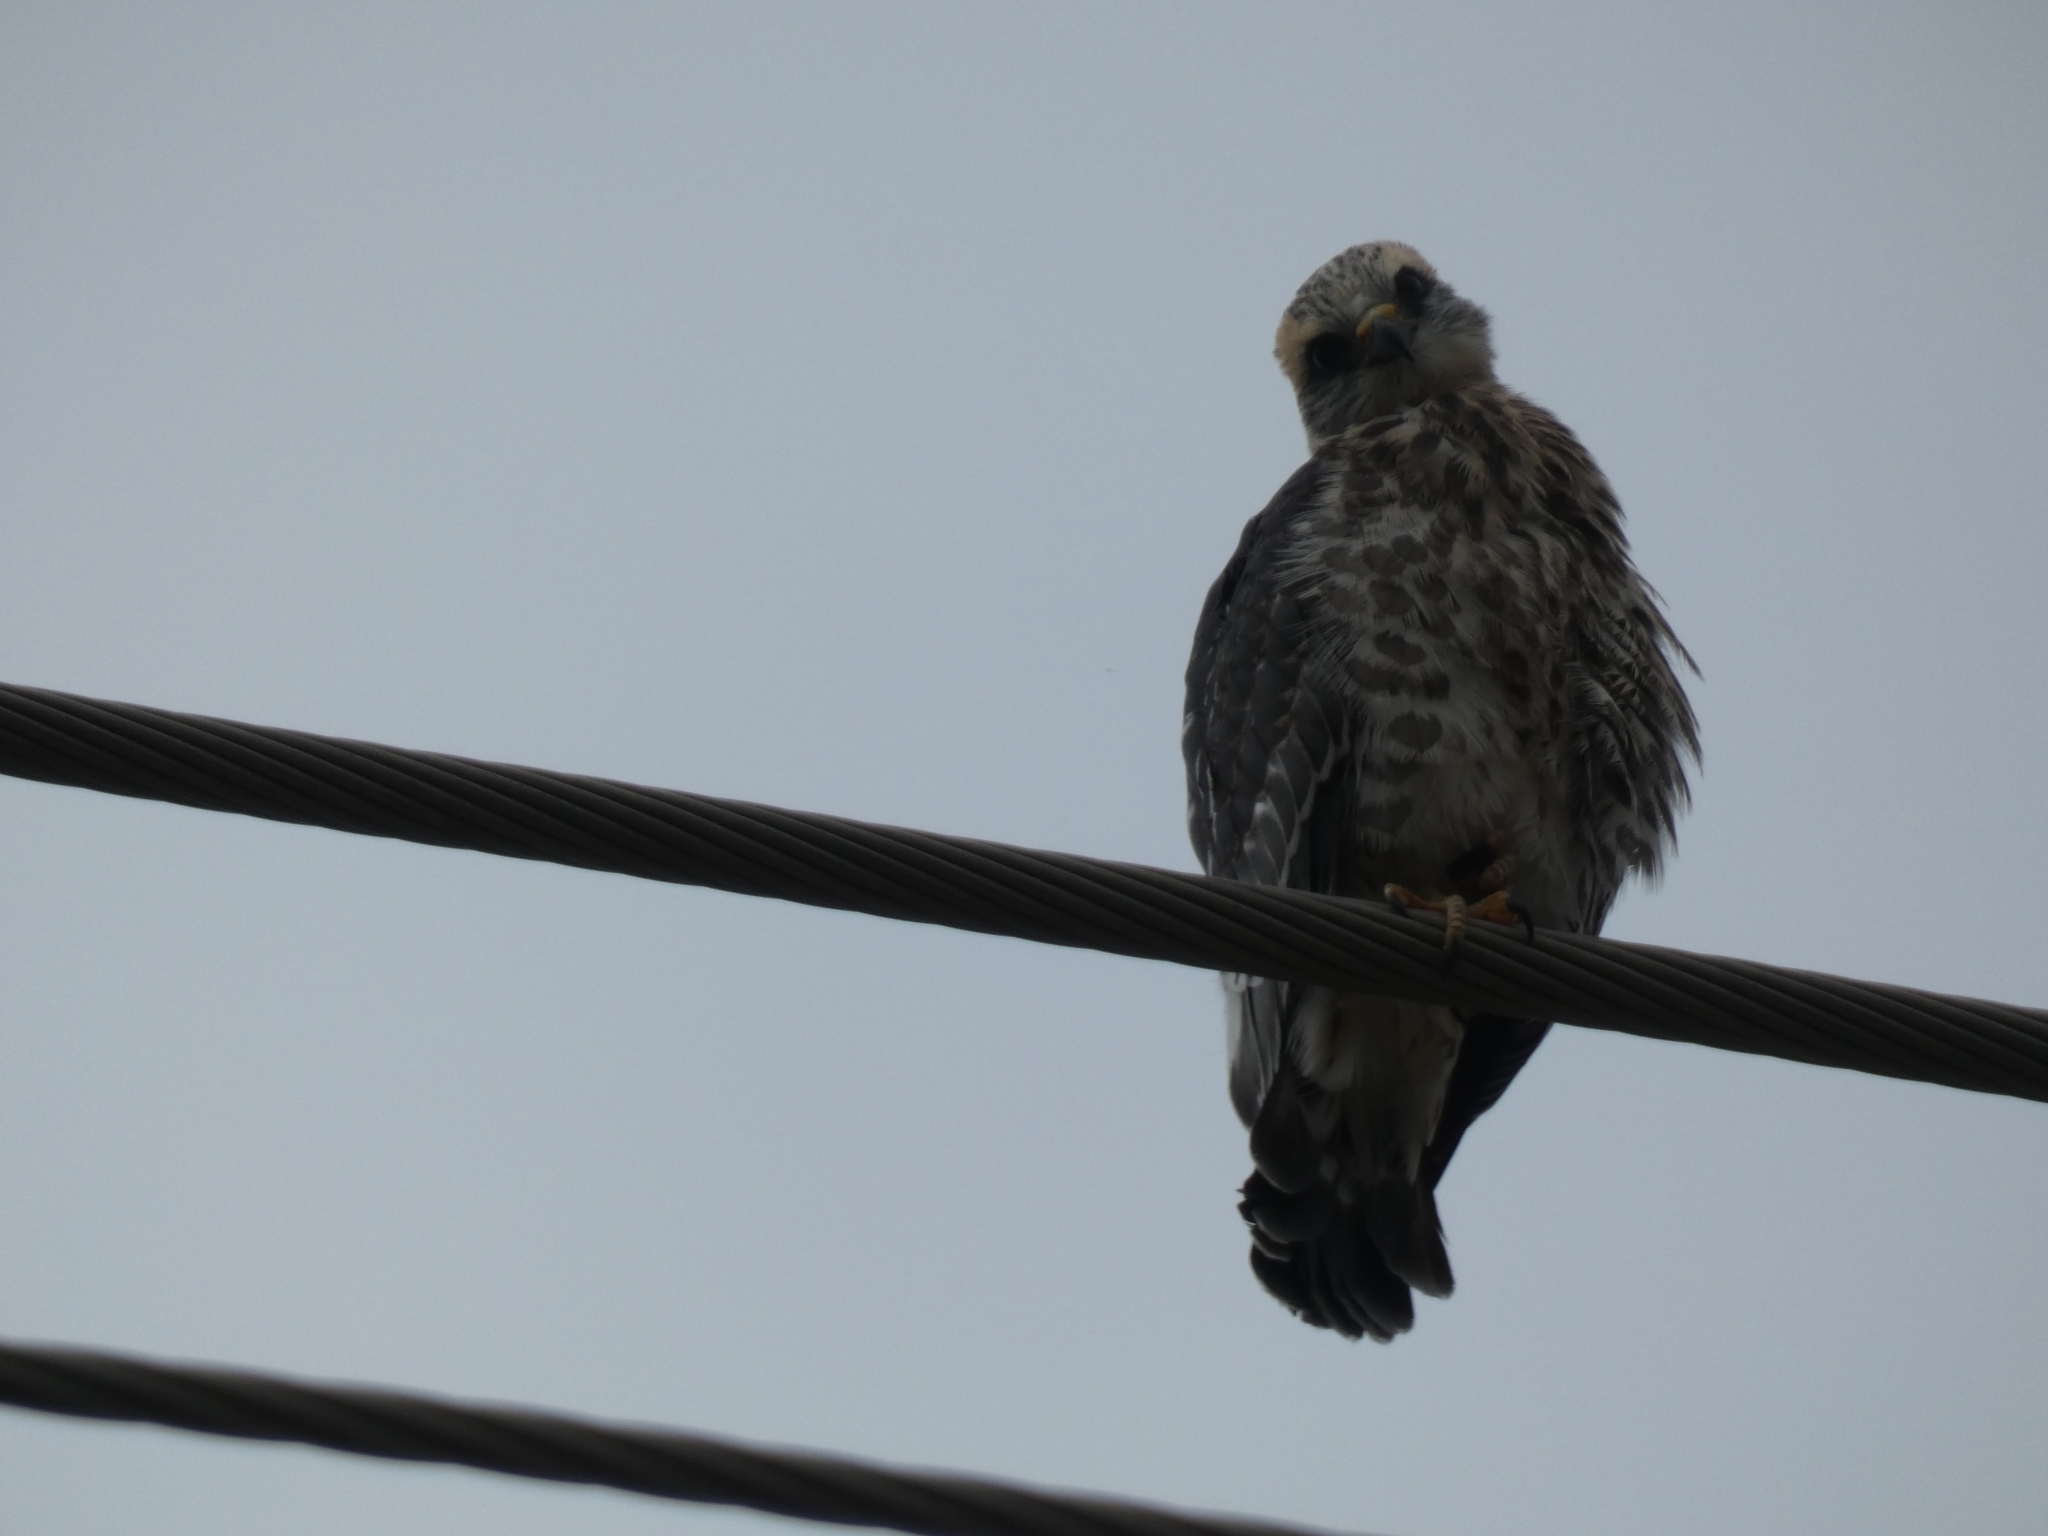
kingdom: Animalia
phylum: Chordata
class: Aves
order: Accipitriformes
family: Accipitridae
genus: Ictinia
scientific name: Ictinia mississippiensis
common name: Mississippi kite
